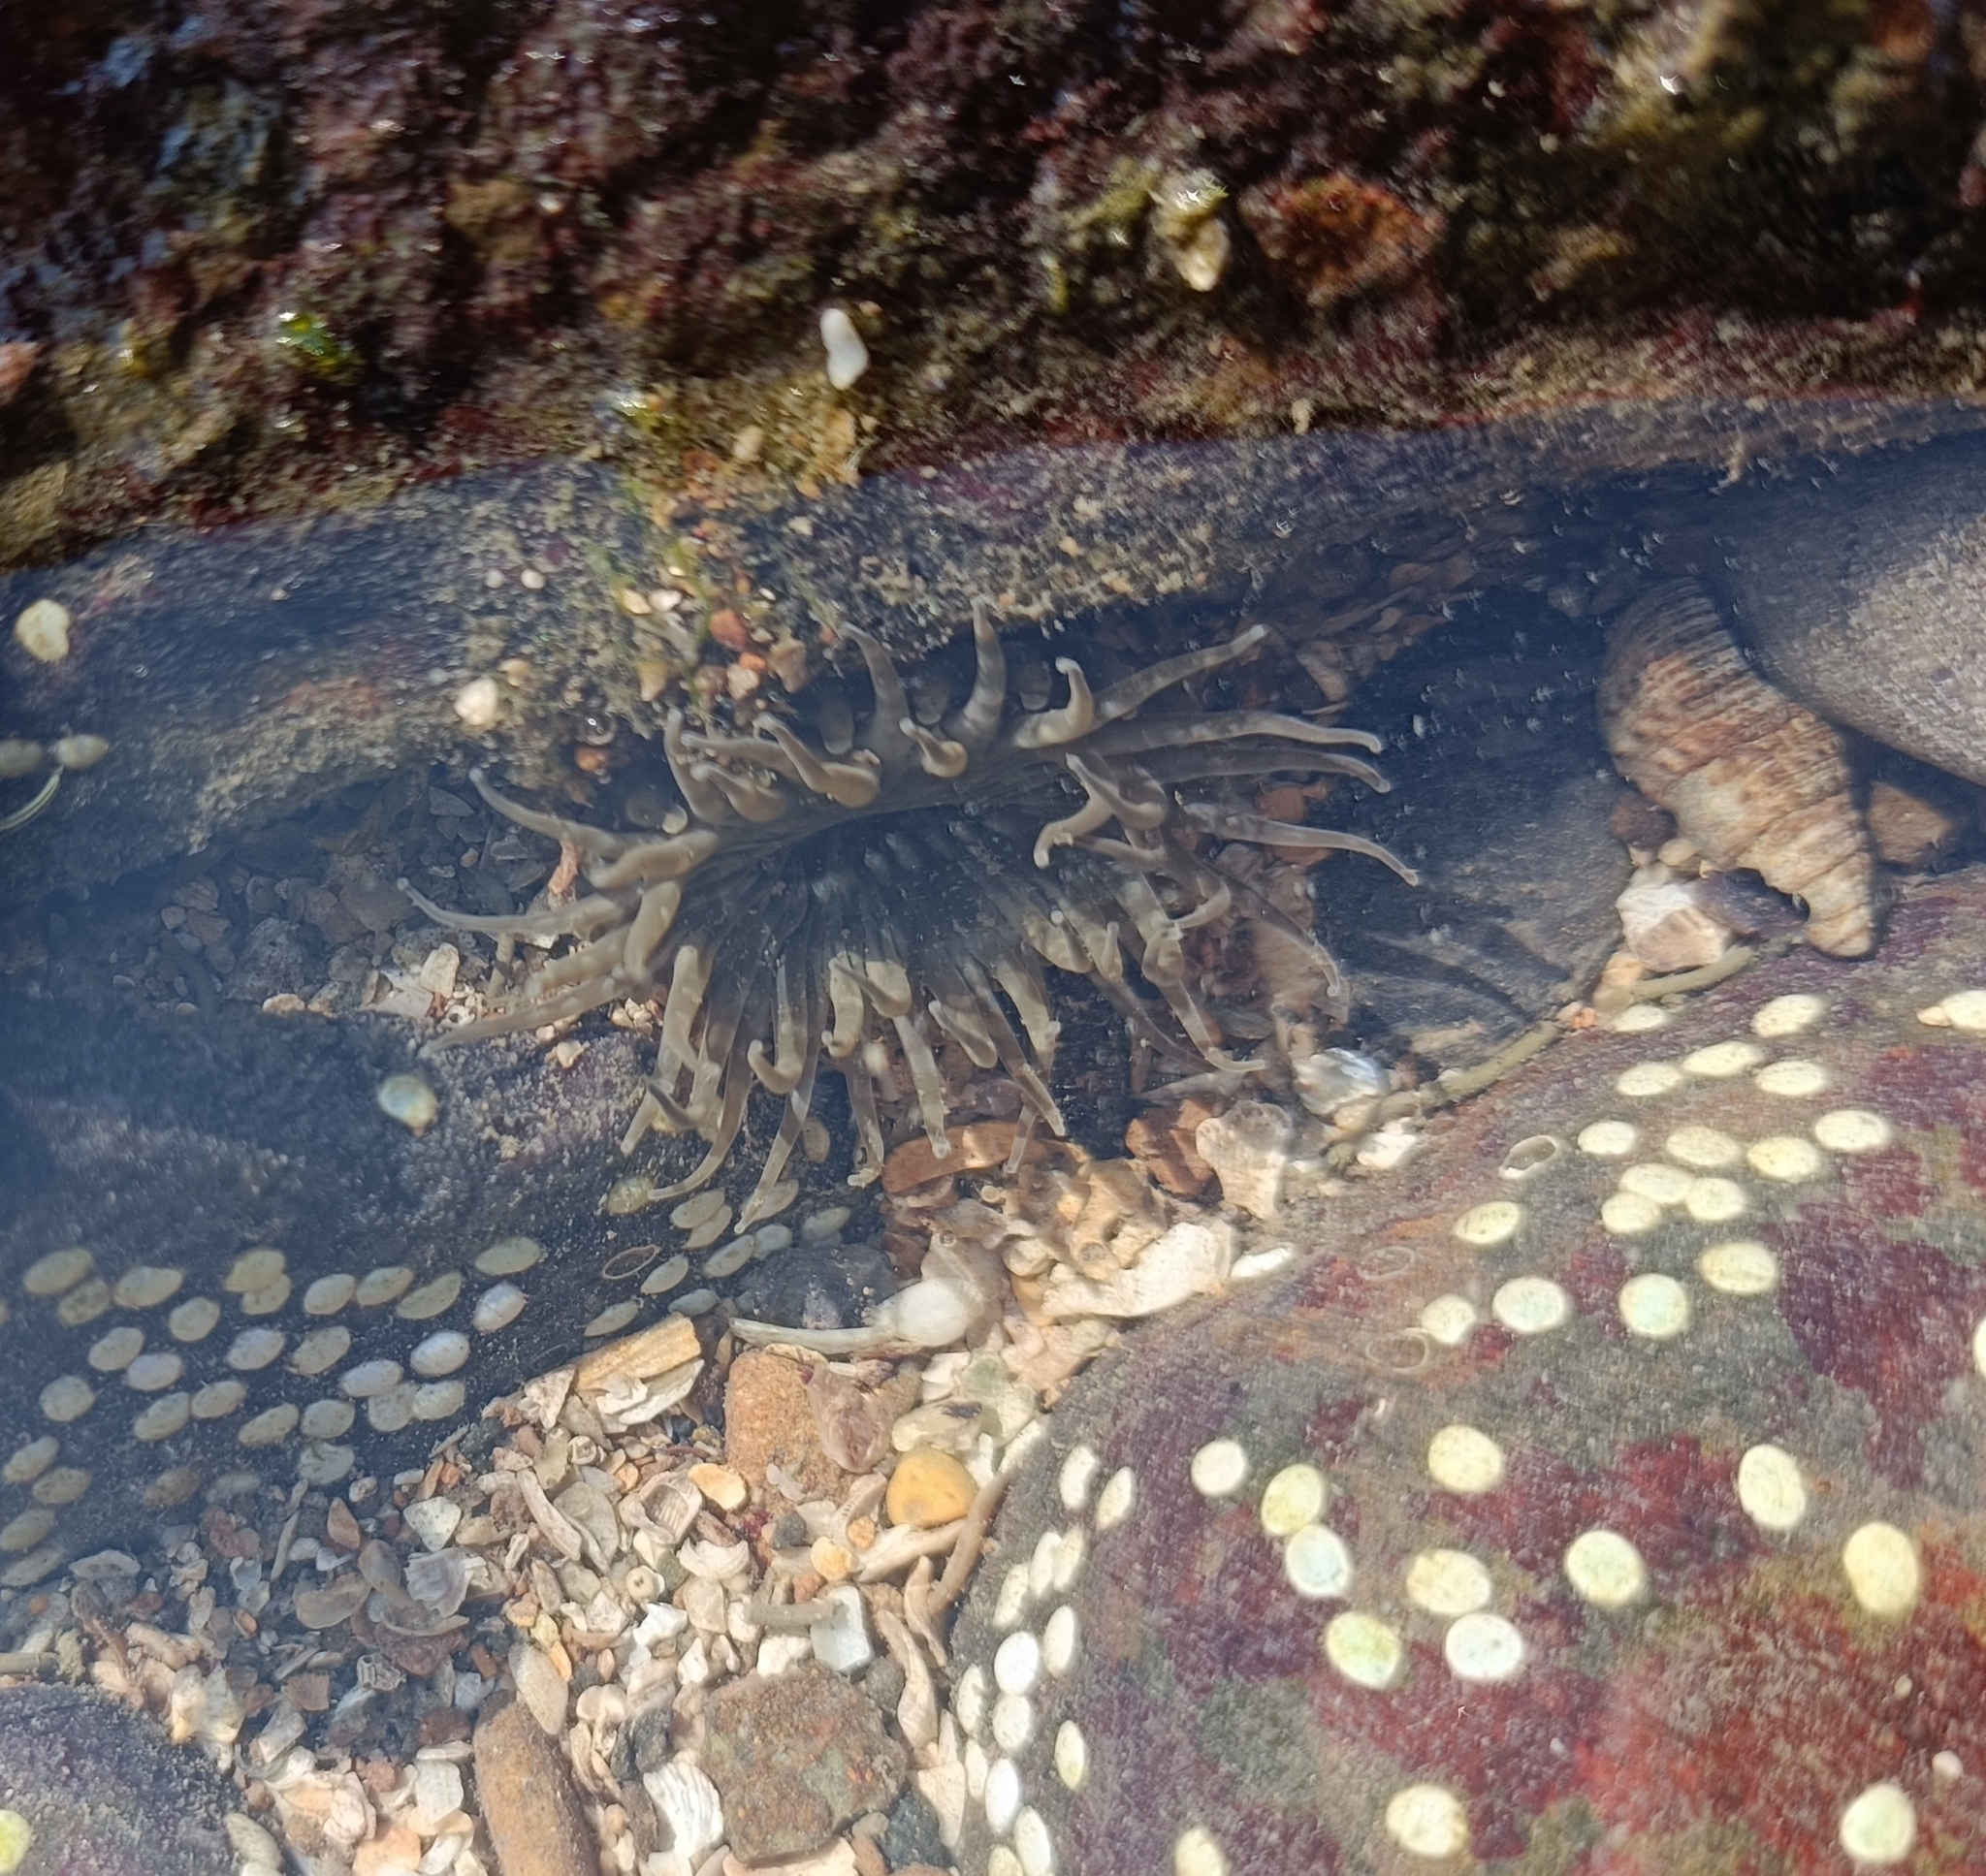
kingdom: Animalia
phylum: Cnidaria
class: Anthozoa
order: Actiniaria
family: Actiniidae
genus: Anthopleura
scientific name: Anthopleura dixoniana
